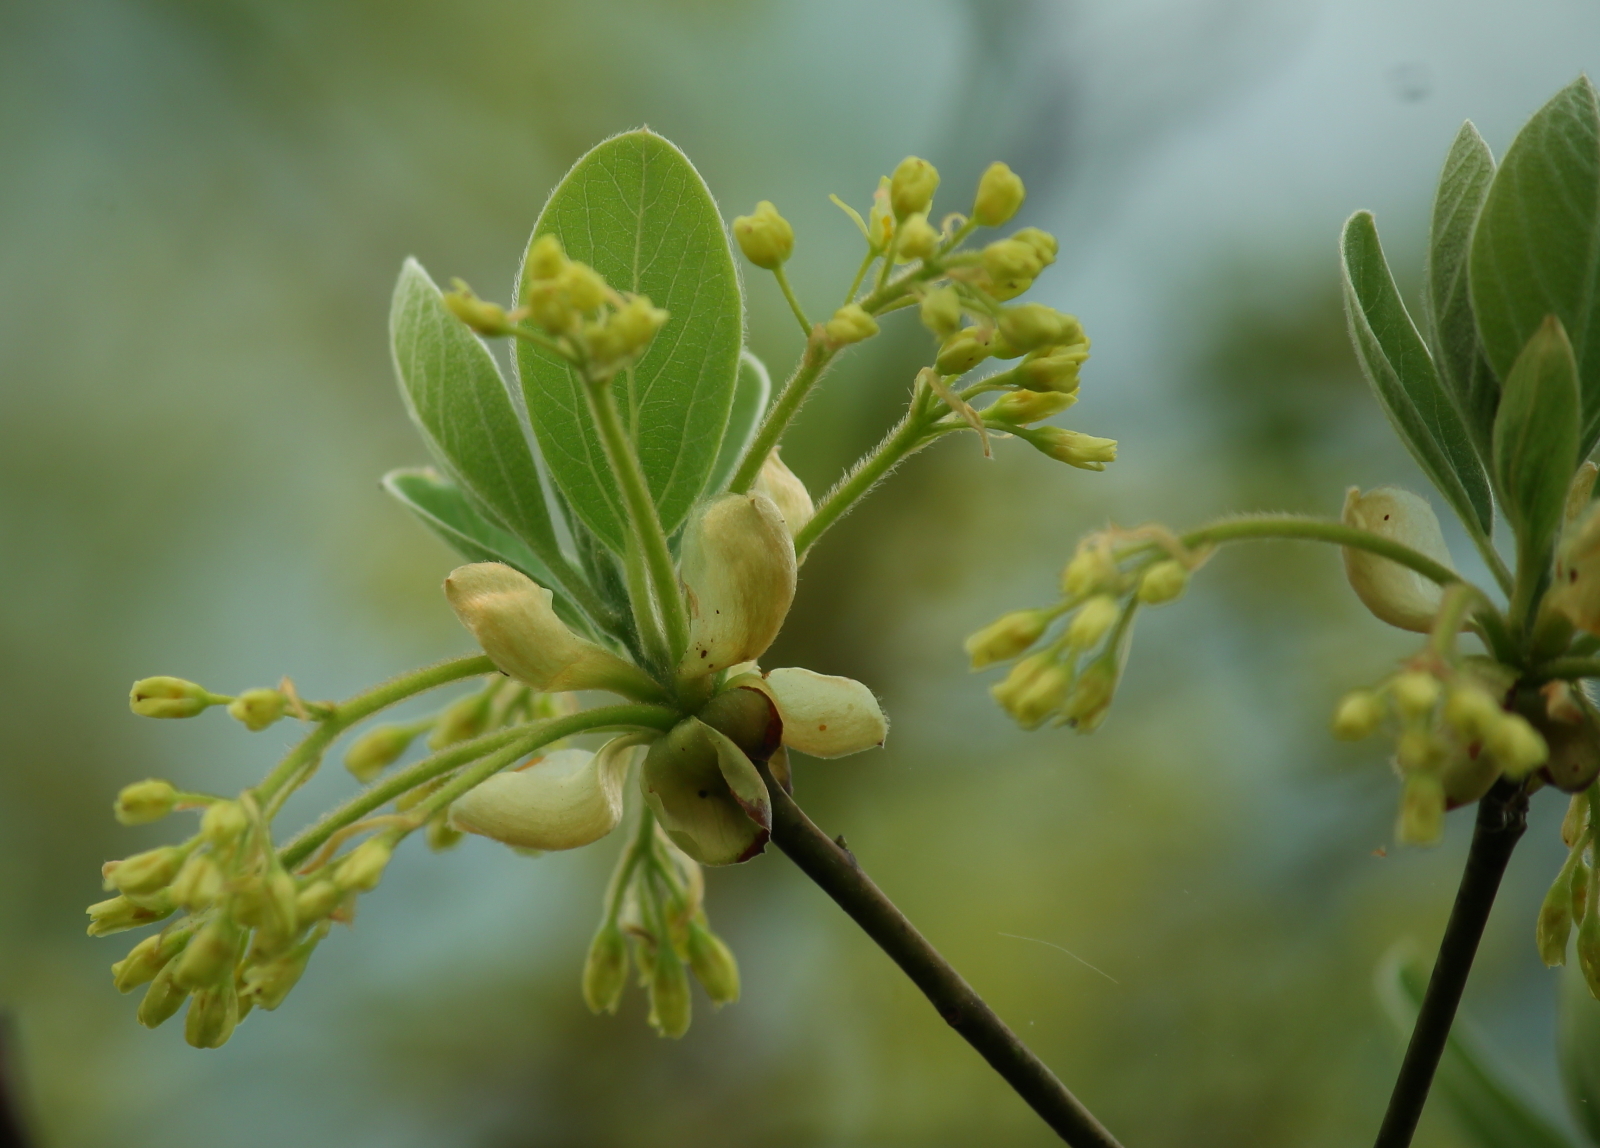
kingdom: Plantae
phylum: Tracheophyta
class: Magnoliopsida
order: Laurales
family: Lauraceae
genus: Sassafras
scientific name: Sassafras albidum
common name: Sassafras
